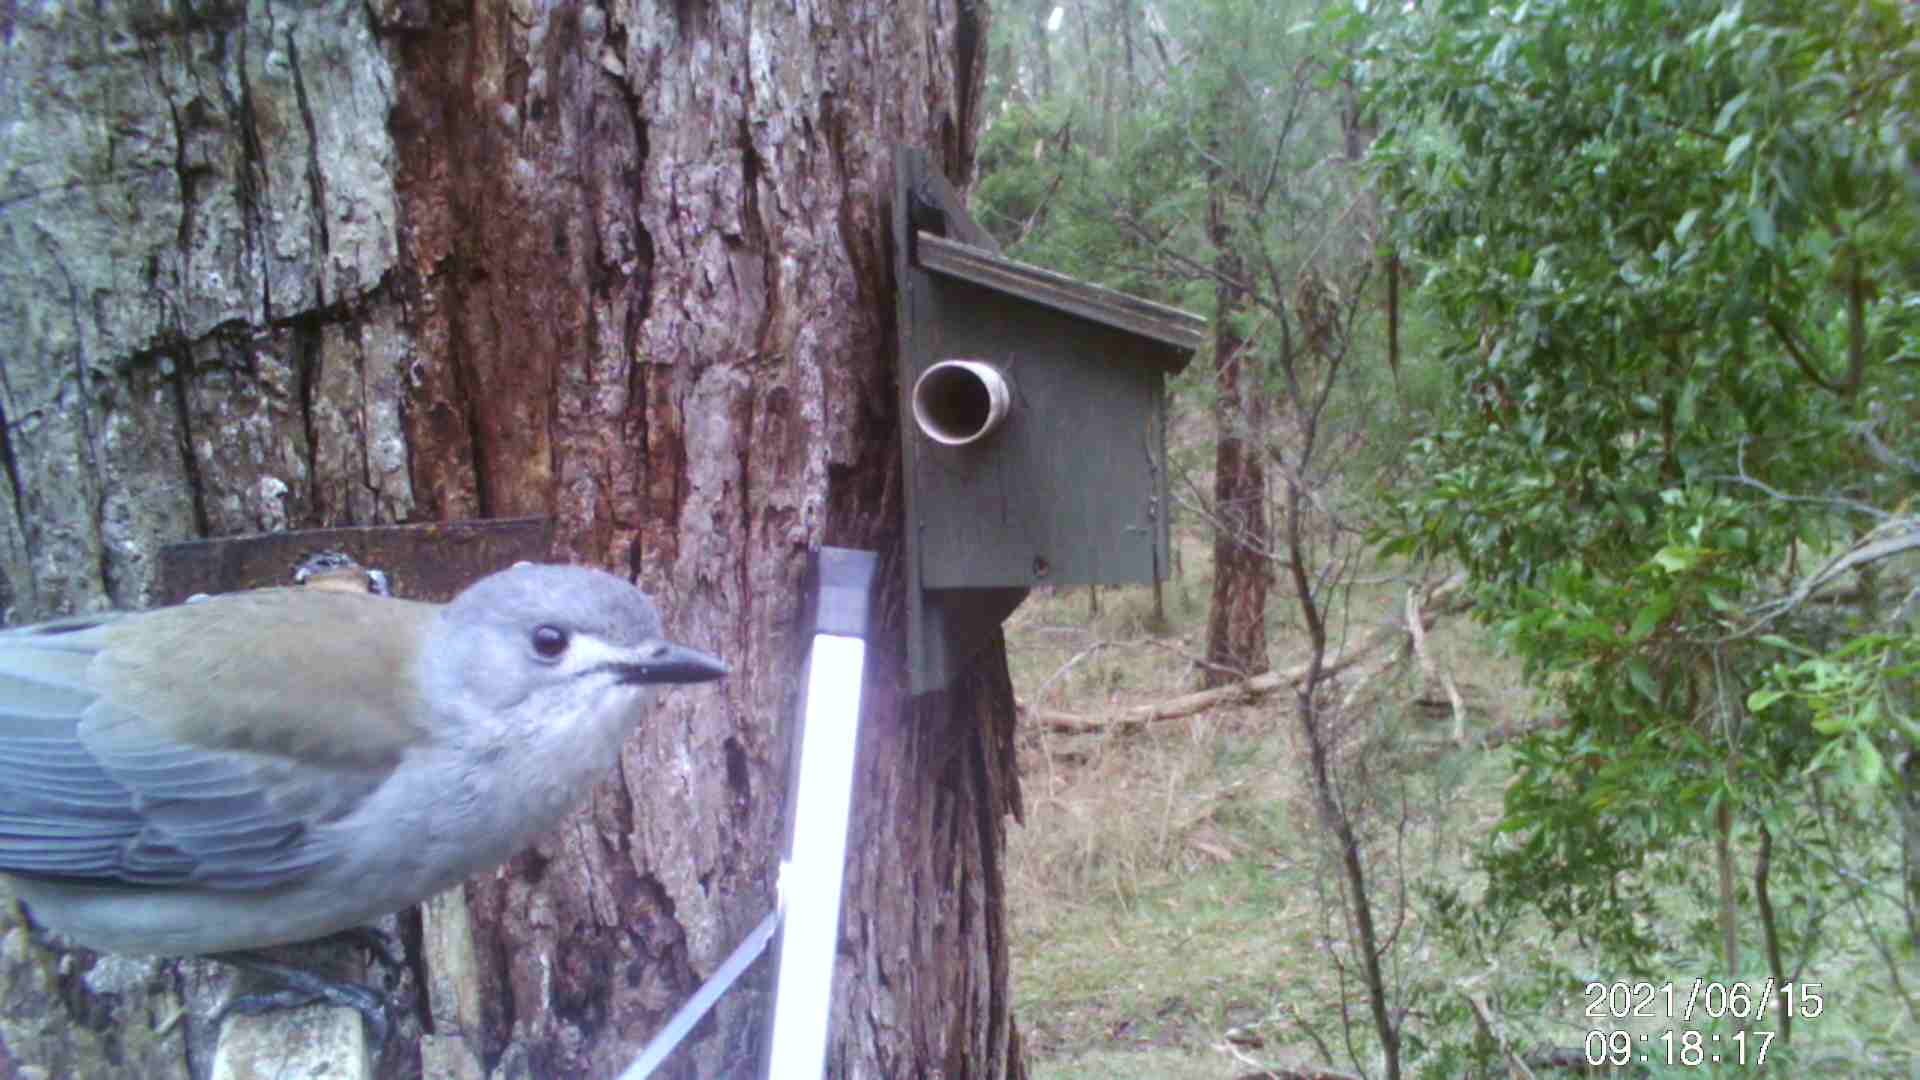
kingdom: Animalia
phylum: Chordata
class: Aves
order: Passeriformes
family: Pachycephalidae
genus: Colluricincla
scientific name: Colluricincla harmonica
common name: Grey shrikethrush
